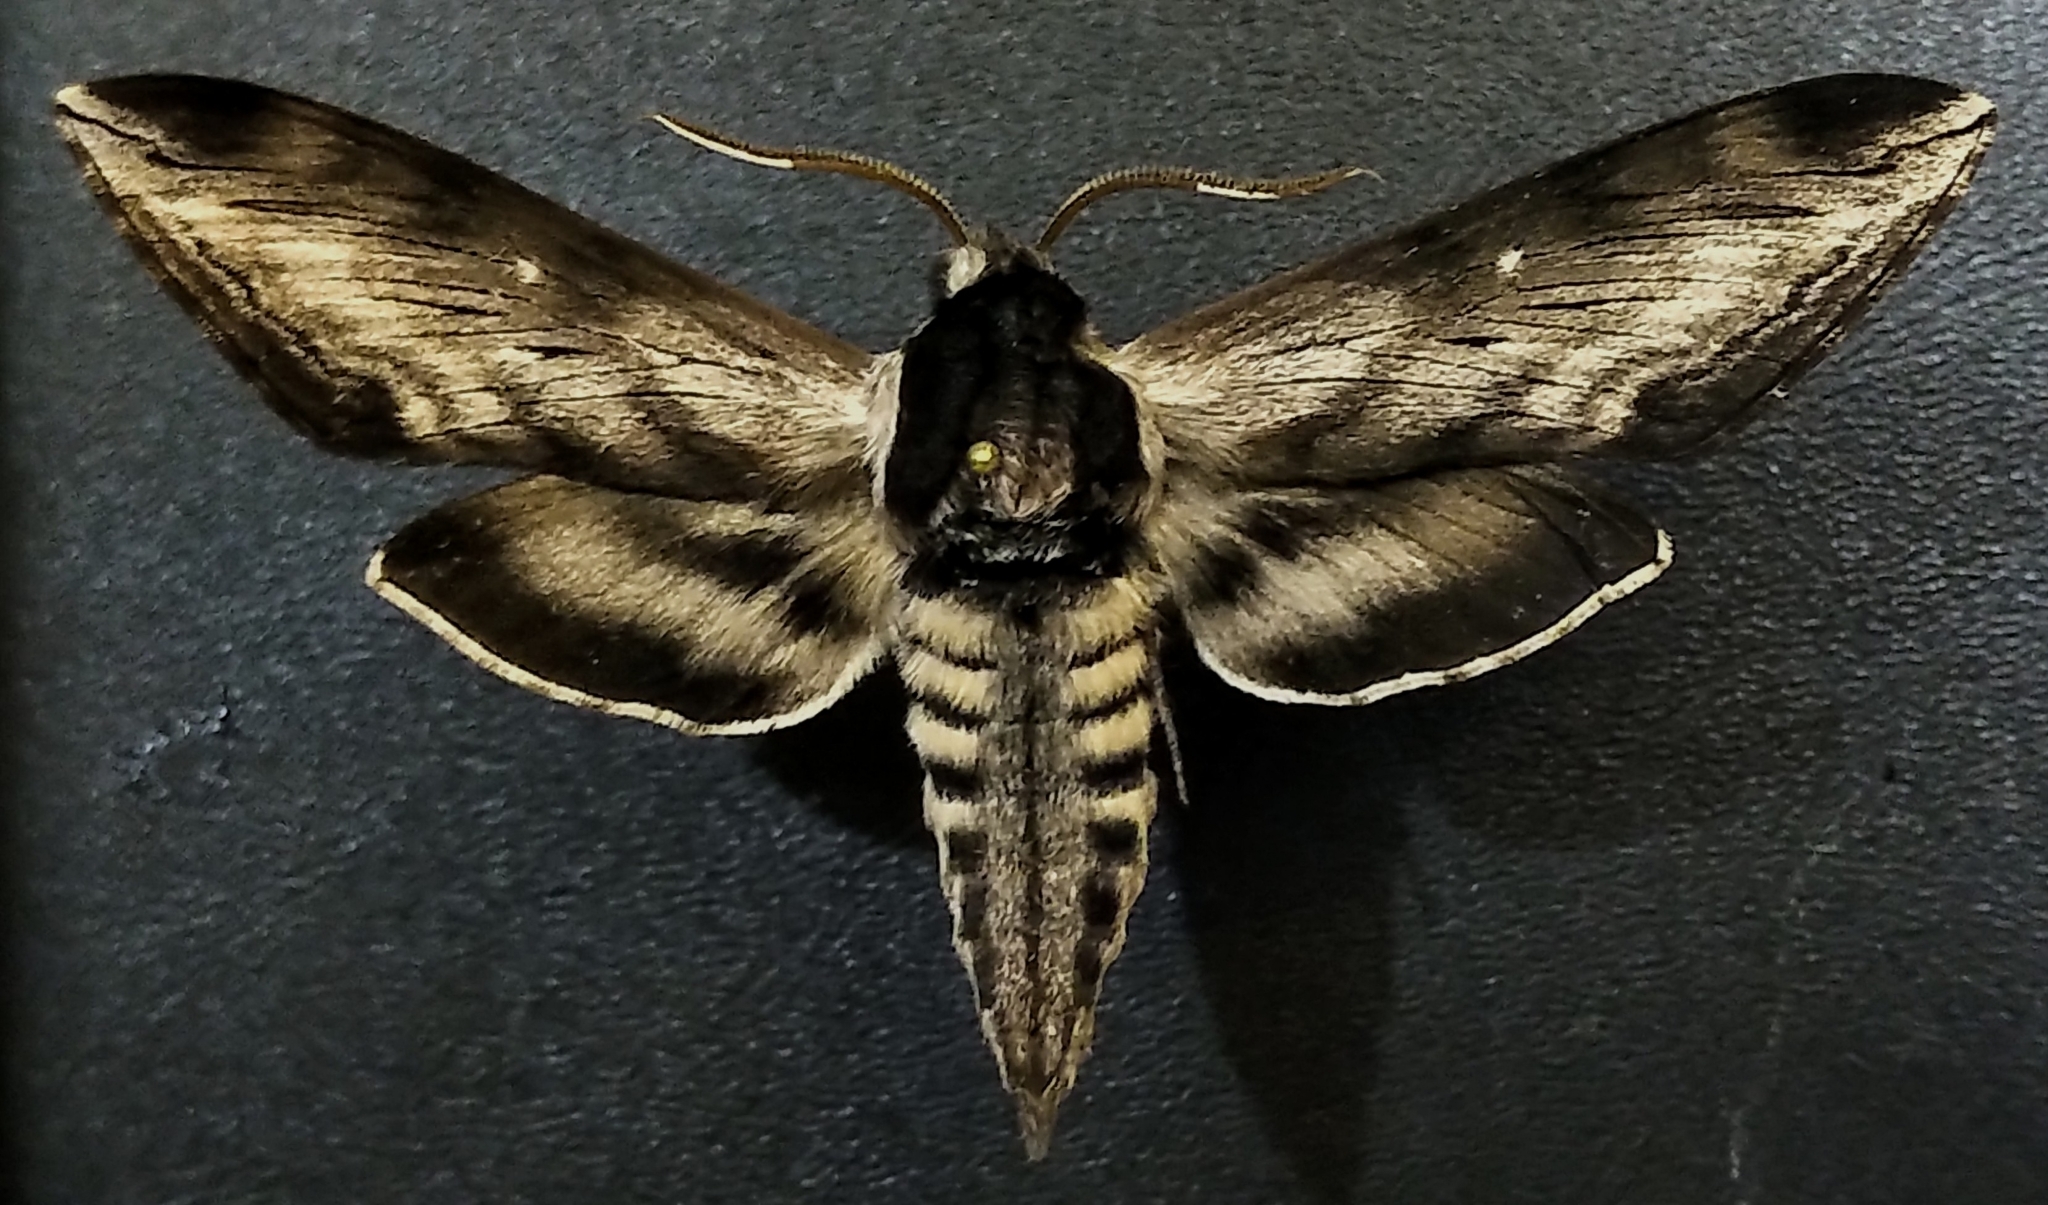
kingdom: Animalia
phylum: Arthropoda
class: Insecta
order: Lepidoptera
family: Sphingidae
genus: Sphinx
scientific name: Sphinx gordius
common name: Apple sphinx
